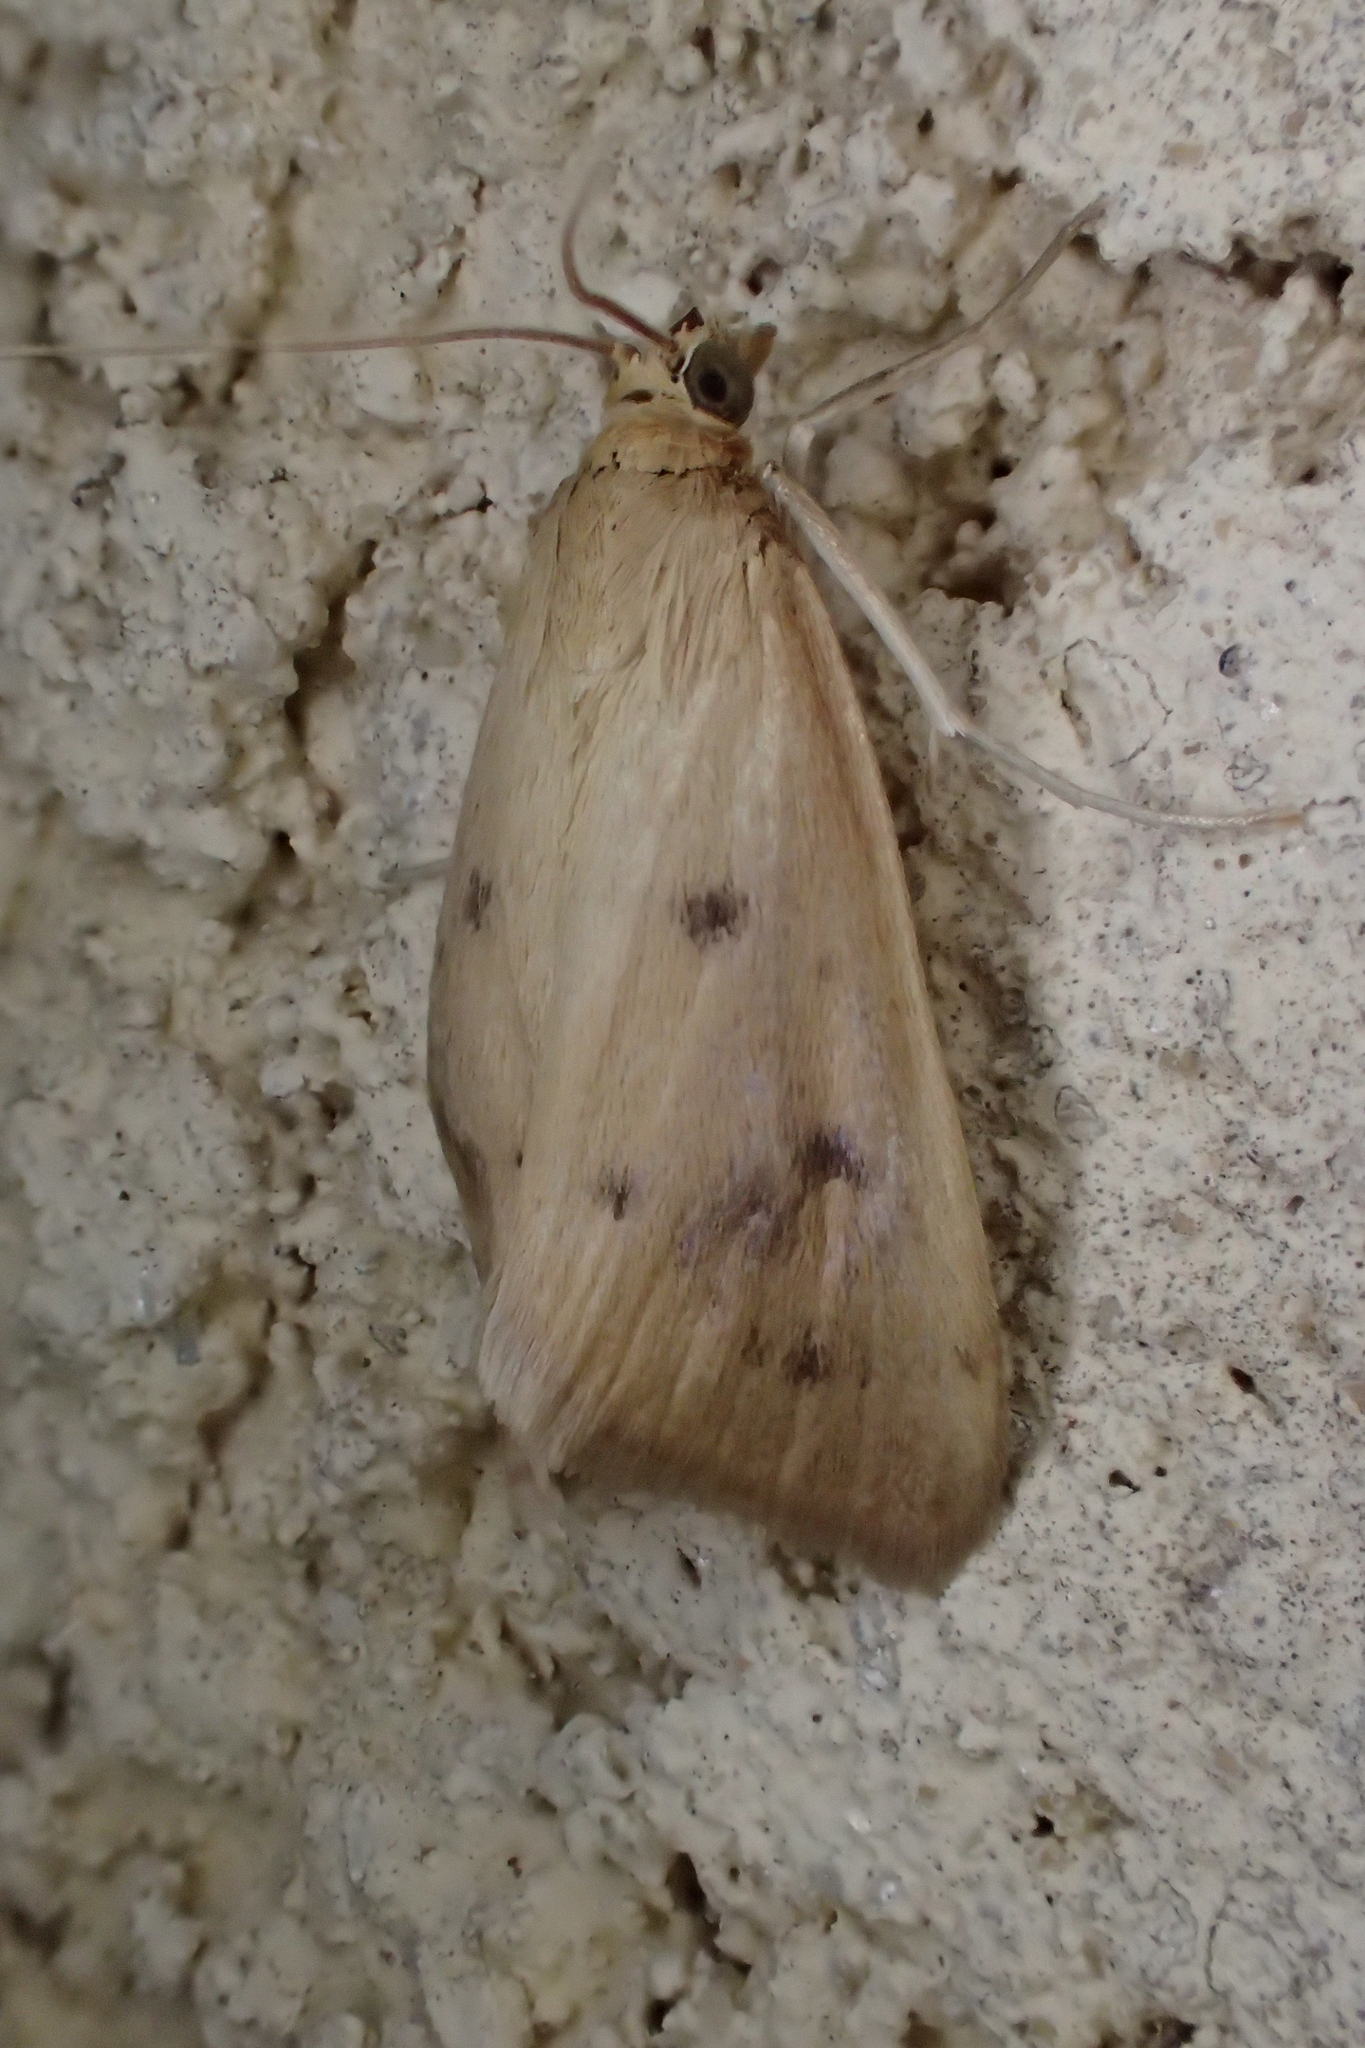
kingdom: Animalia
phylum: Arthropoda
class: Insecta
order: Lepidoptera
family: Crambidae
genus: Achyra
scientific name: Achyra nudalis
